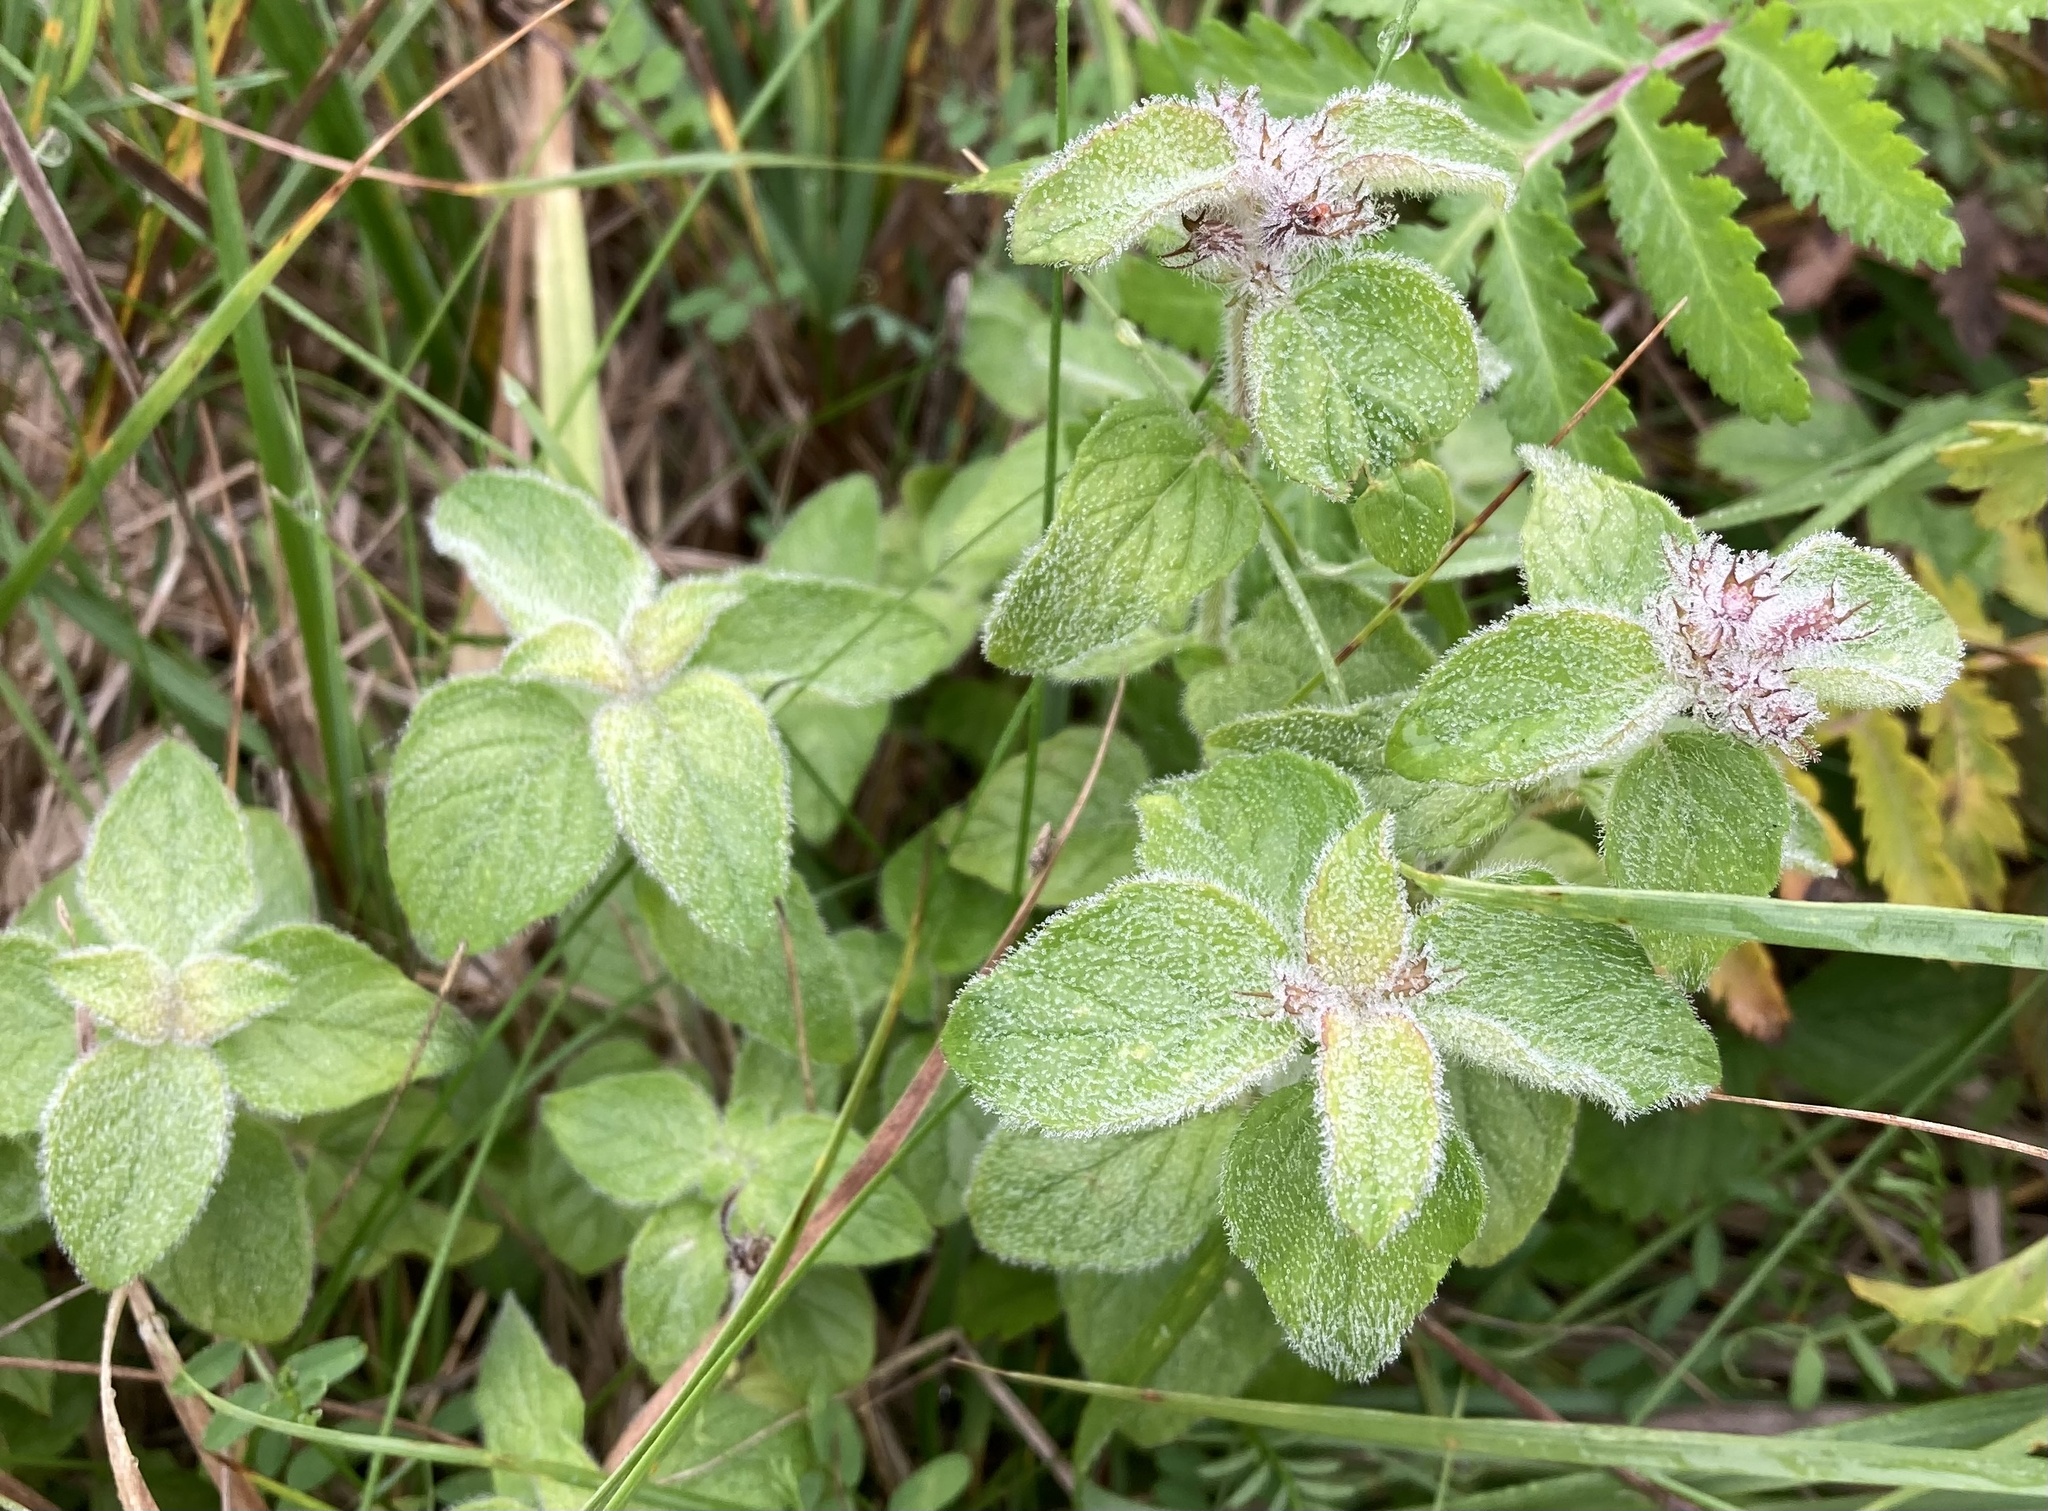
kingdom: Plantae
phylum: Tracheophyta
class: Magnoliopsida
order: Lamiales
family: Lamiaceae
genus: Clinopodium
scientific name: Clinopodium vulgare
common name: Wild basil
